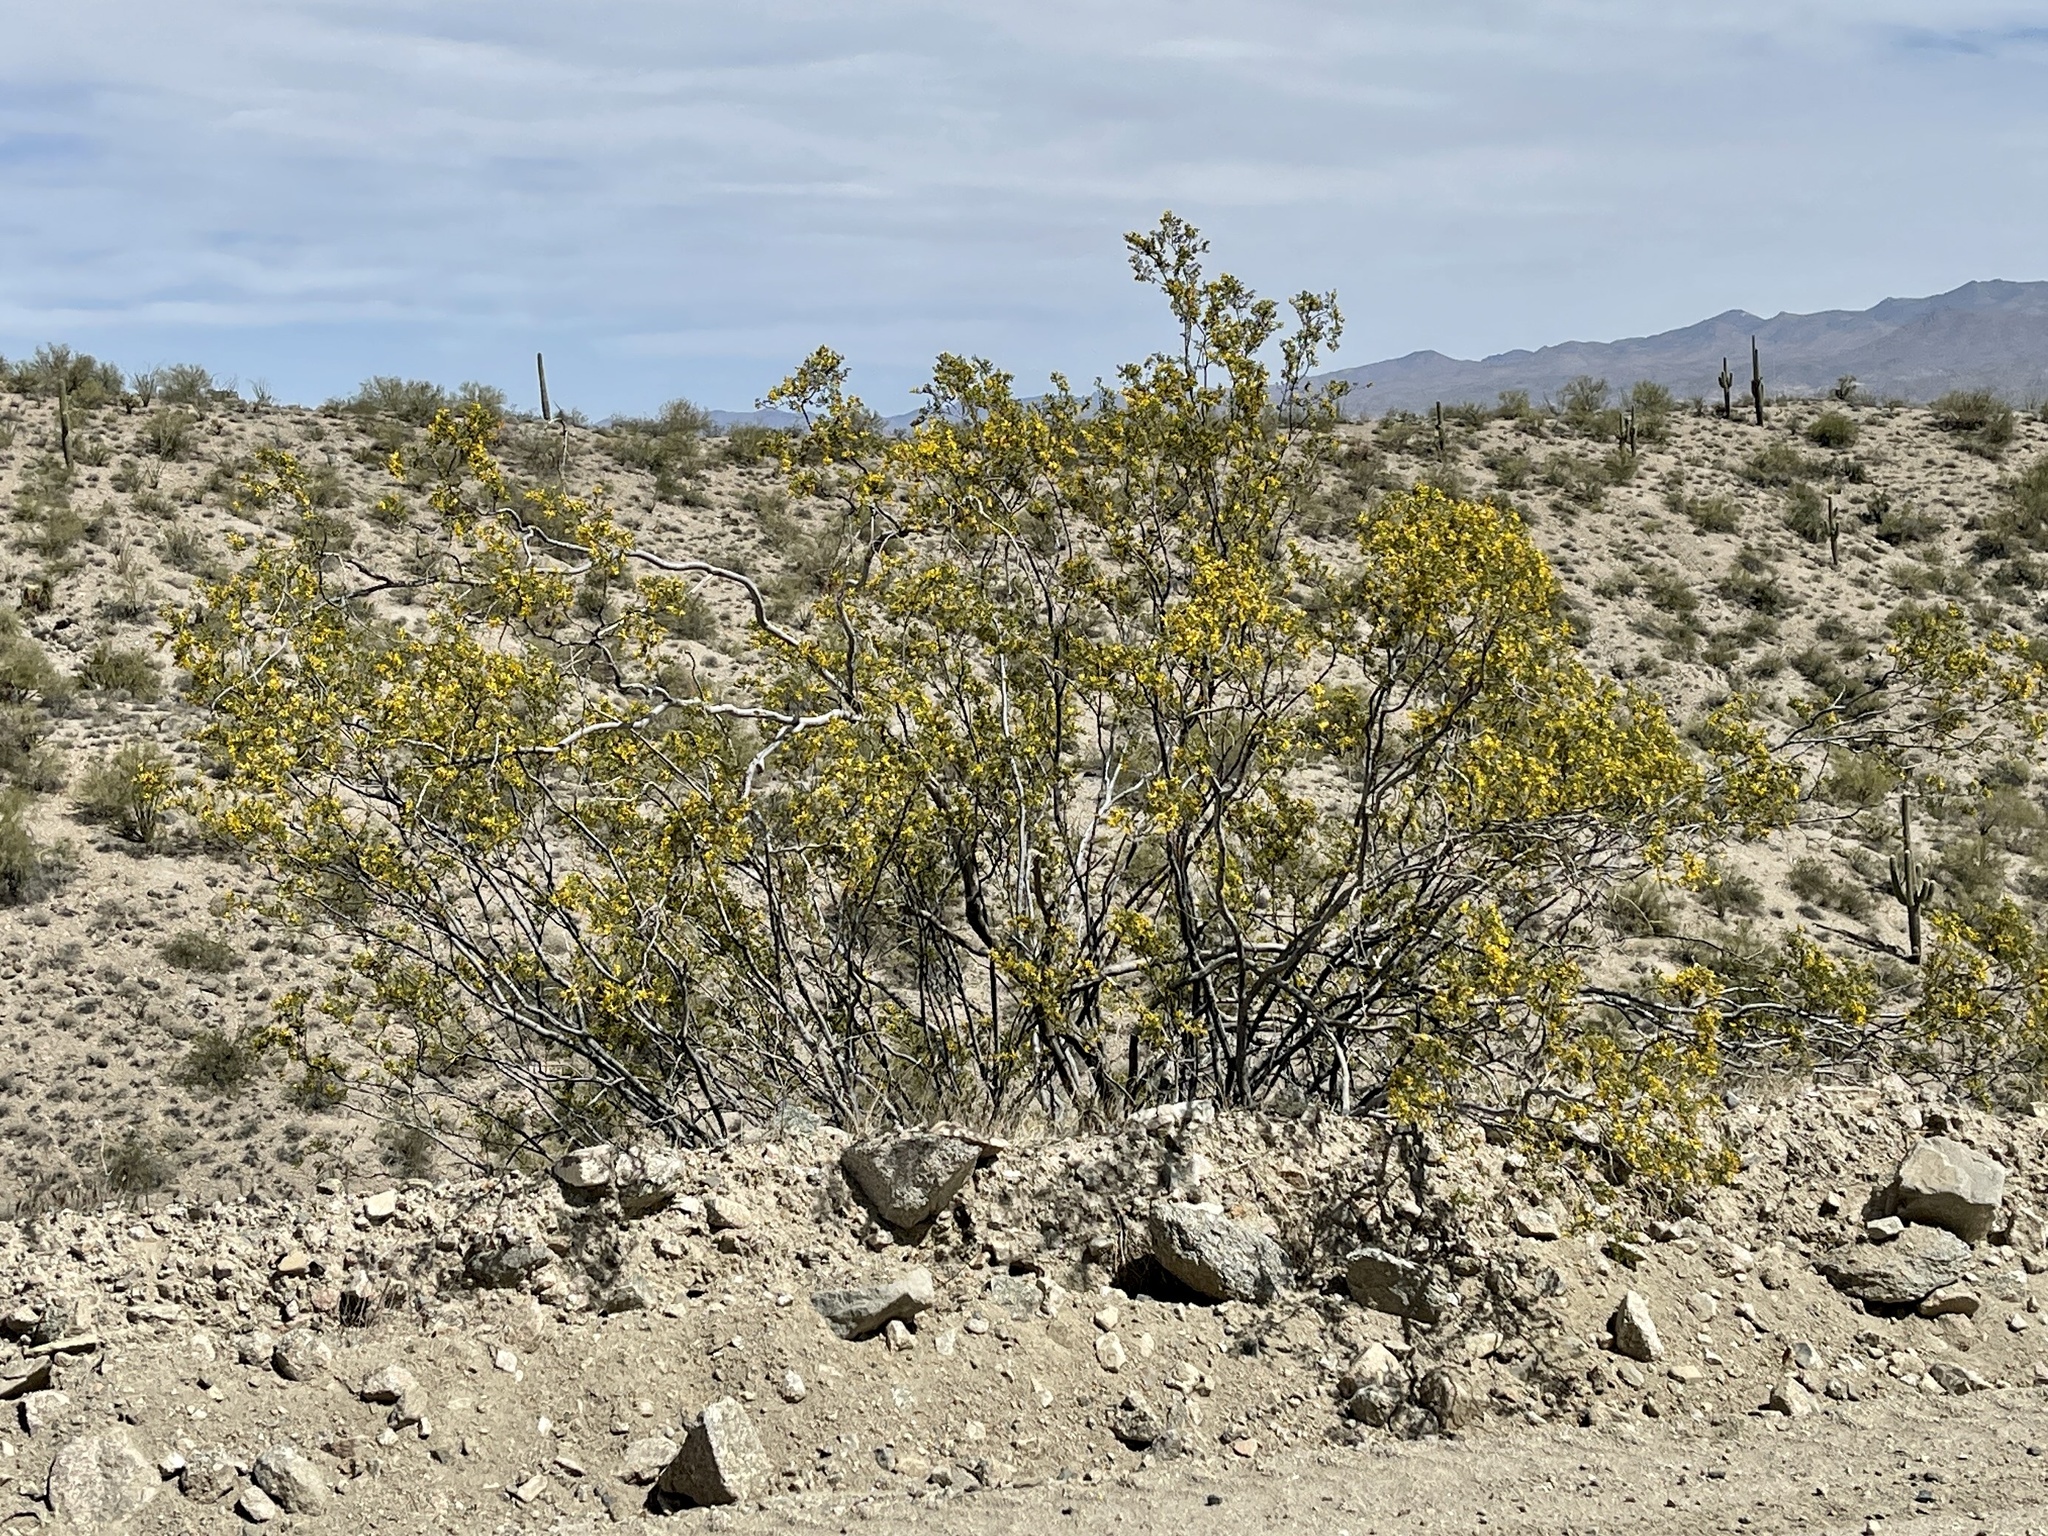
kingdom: Plantae
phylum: Tracheophyta
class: Magnoliopsida
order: Zygophyllales
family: Zygophyllaceae
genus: Larrea
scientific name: Larrea tridentata
